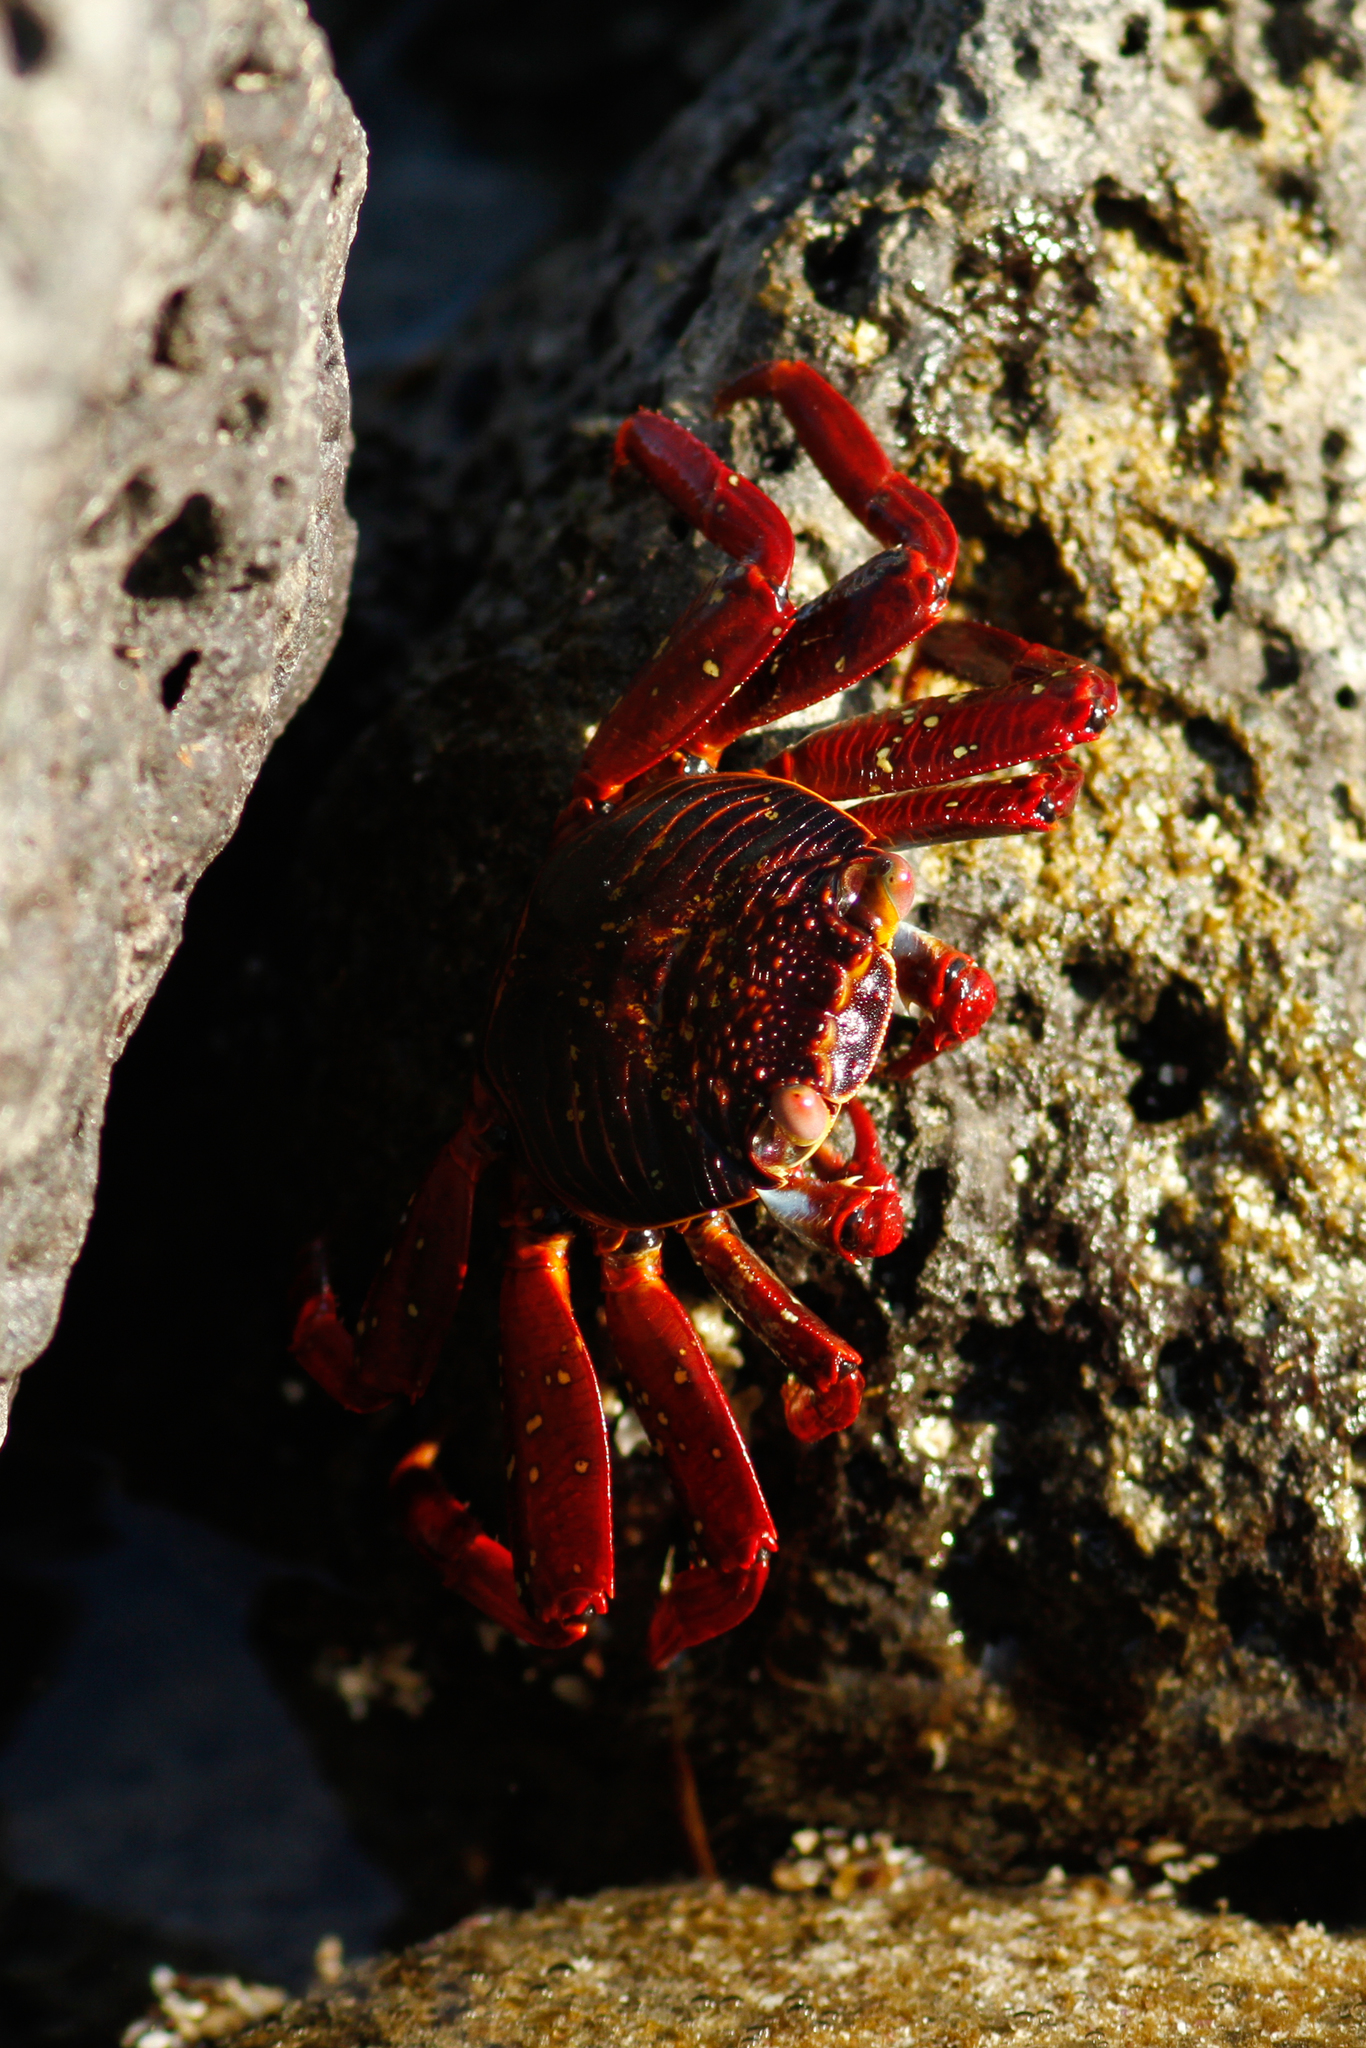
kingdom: Animalia
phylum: Arthropoda
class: Malacostraca
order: Decapoda
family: Grapsidae
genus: Grapsus
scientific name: Grapsus grapsus
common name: Sally lightfoot
